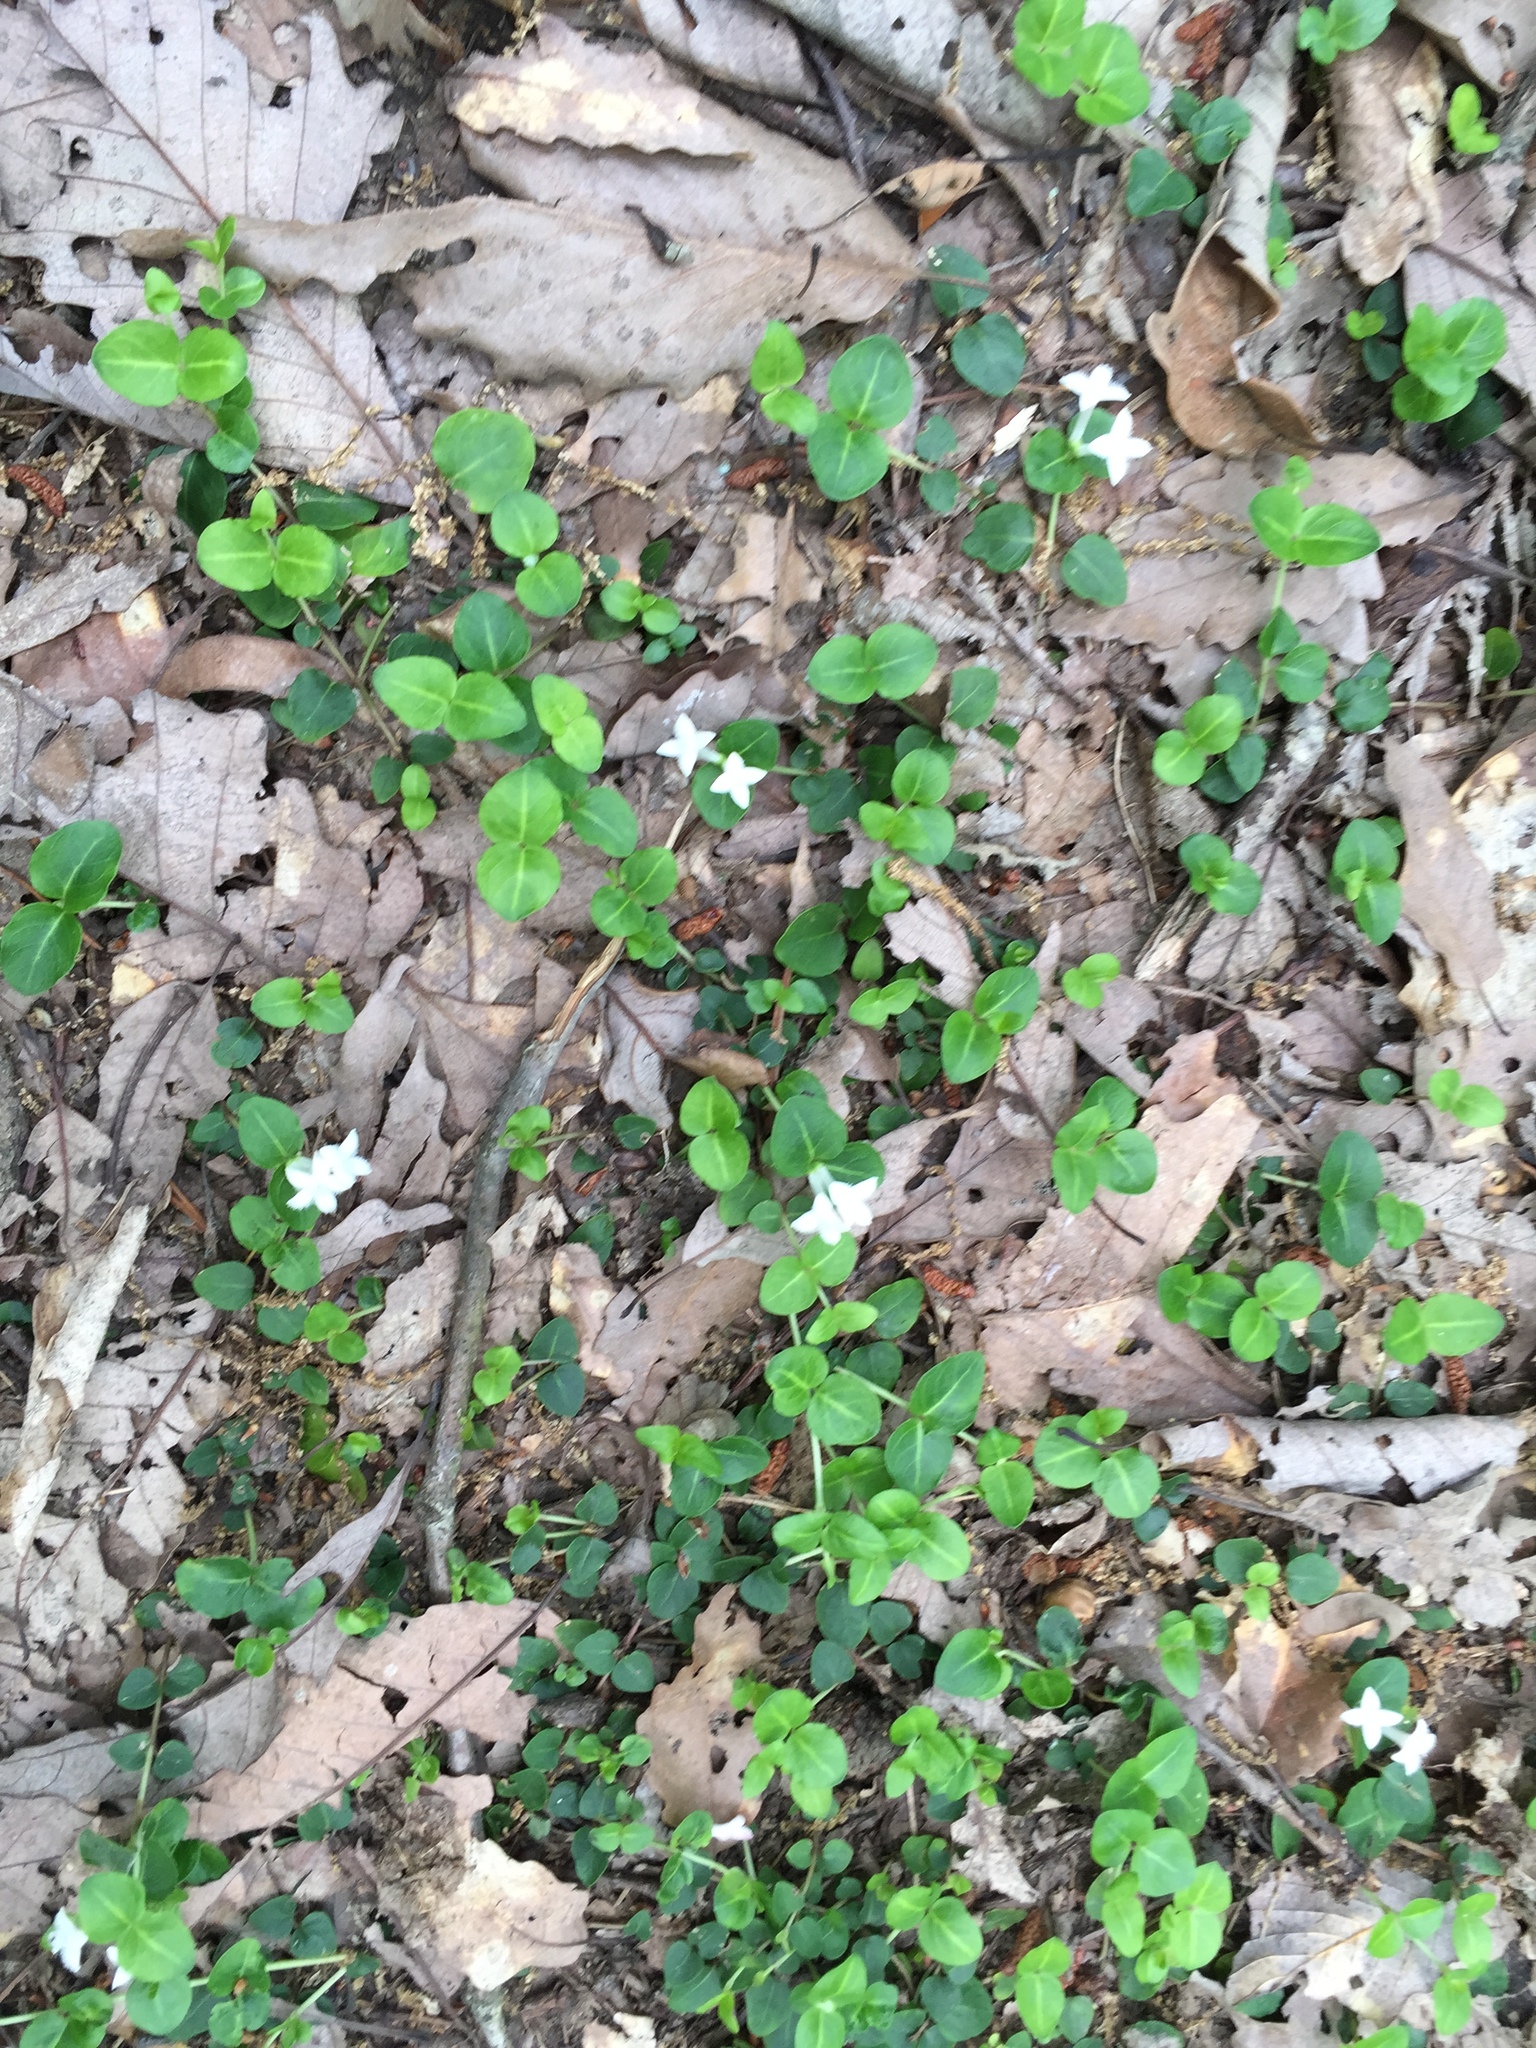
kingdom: Plantae
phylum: Tracheophyta
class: Magnoliopsida
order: Gentianales
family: Rubiaceae
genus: Mitchella
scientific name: Mitchella repens
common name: Partridge-berry
